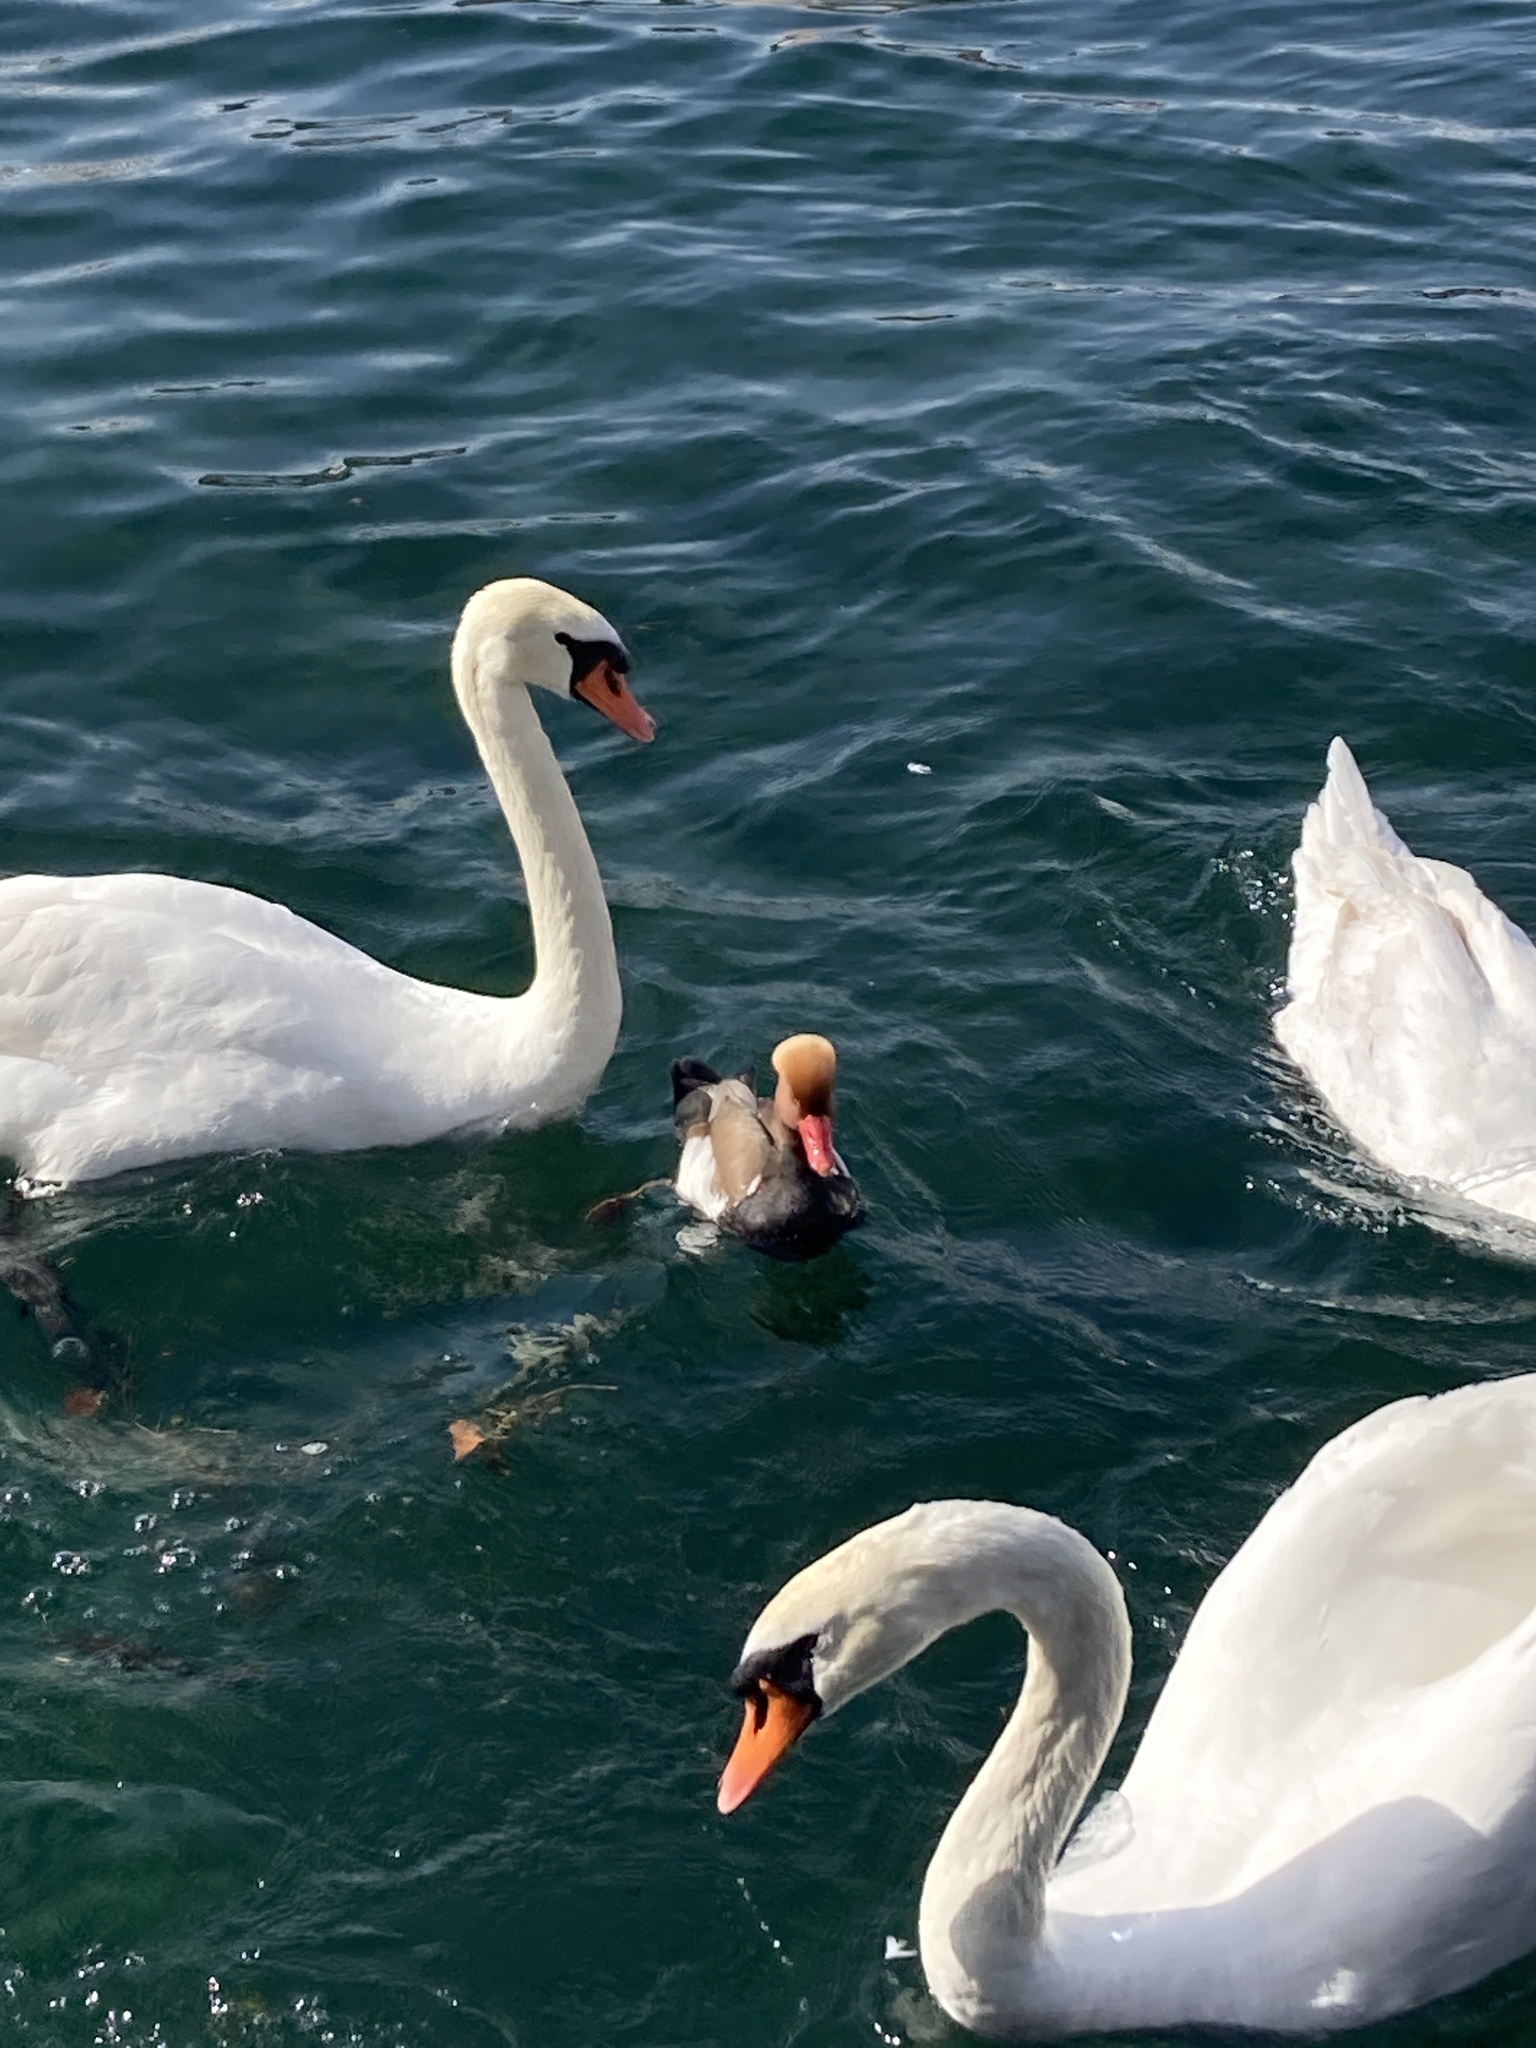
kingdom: Animalia
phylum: Chordata
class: Aves
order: Anseriformes
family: Anatidae
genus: Netta
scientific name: Netta rufina
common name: Red-crested pochard
